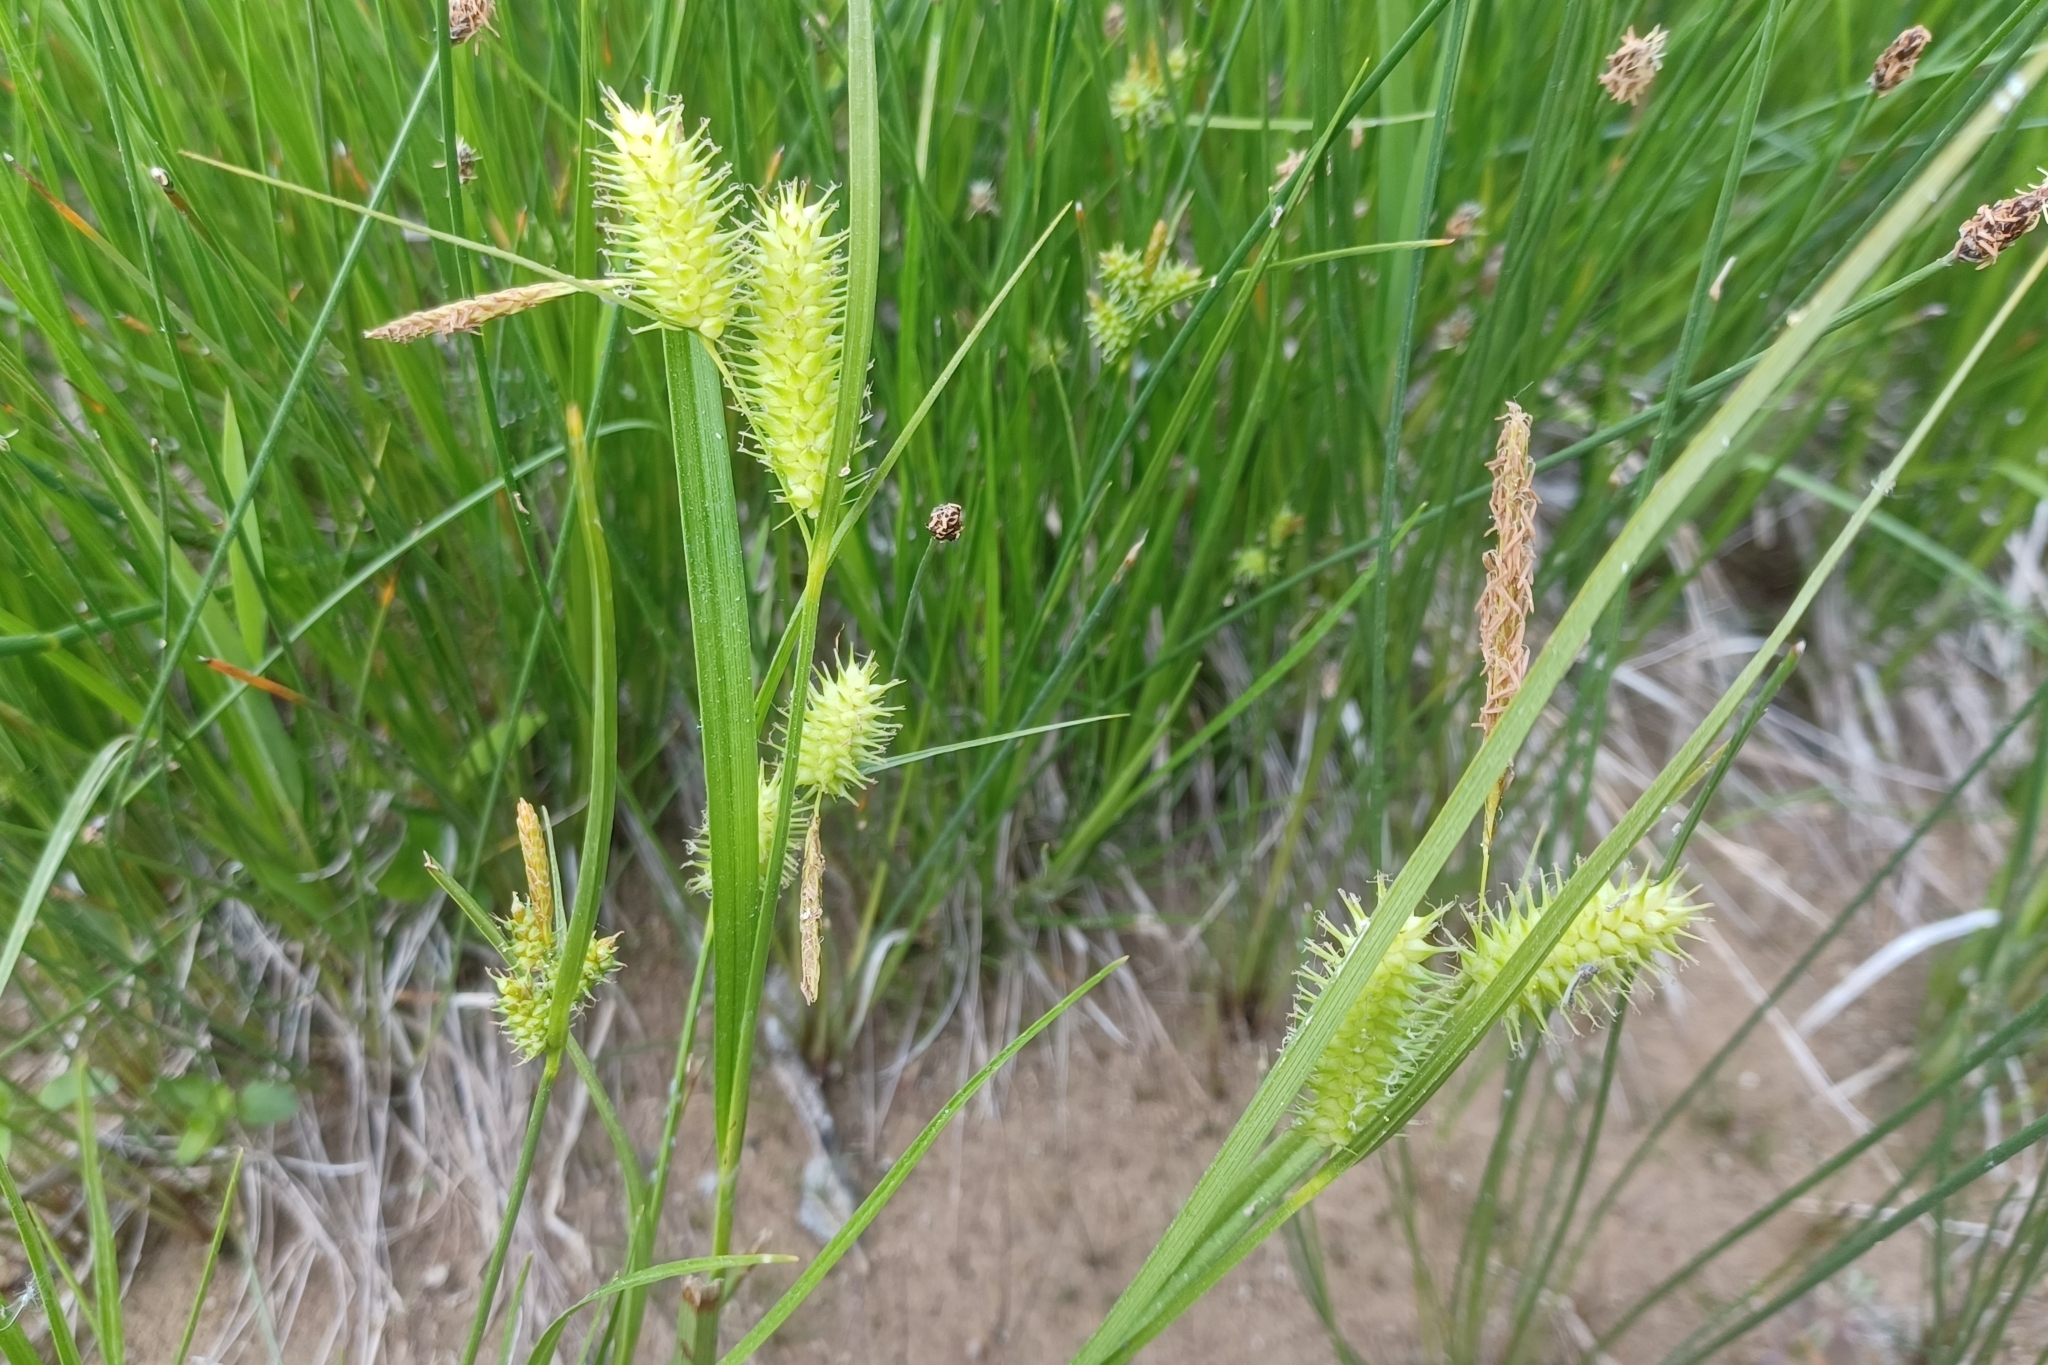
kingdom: Plantae
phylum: Tracheophyta
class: Liliopsida
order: Poales
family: Cyperaceae
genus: Carex
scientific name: Carex hystericina
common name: Bottlebrush sedge
